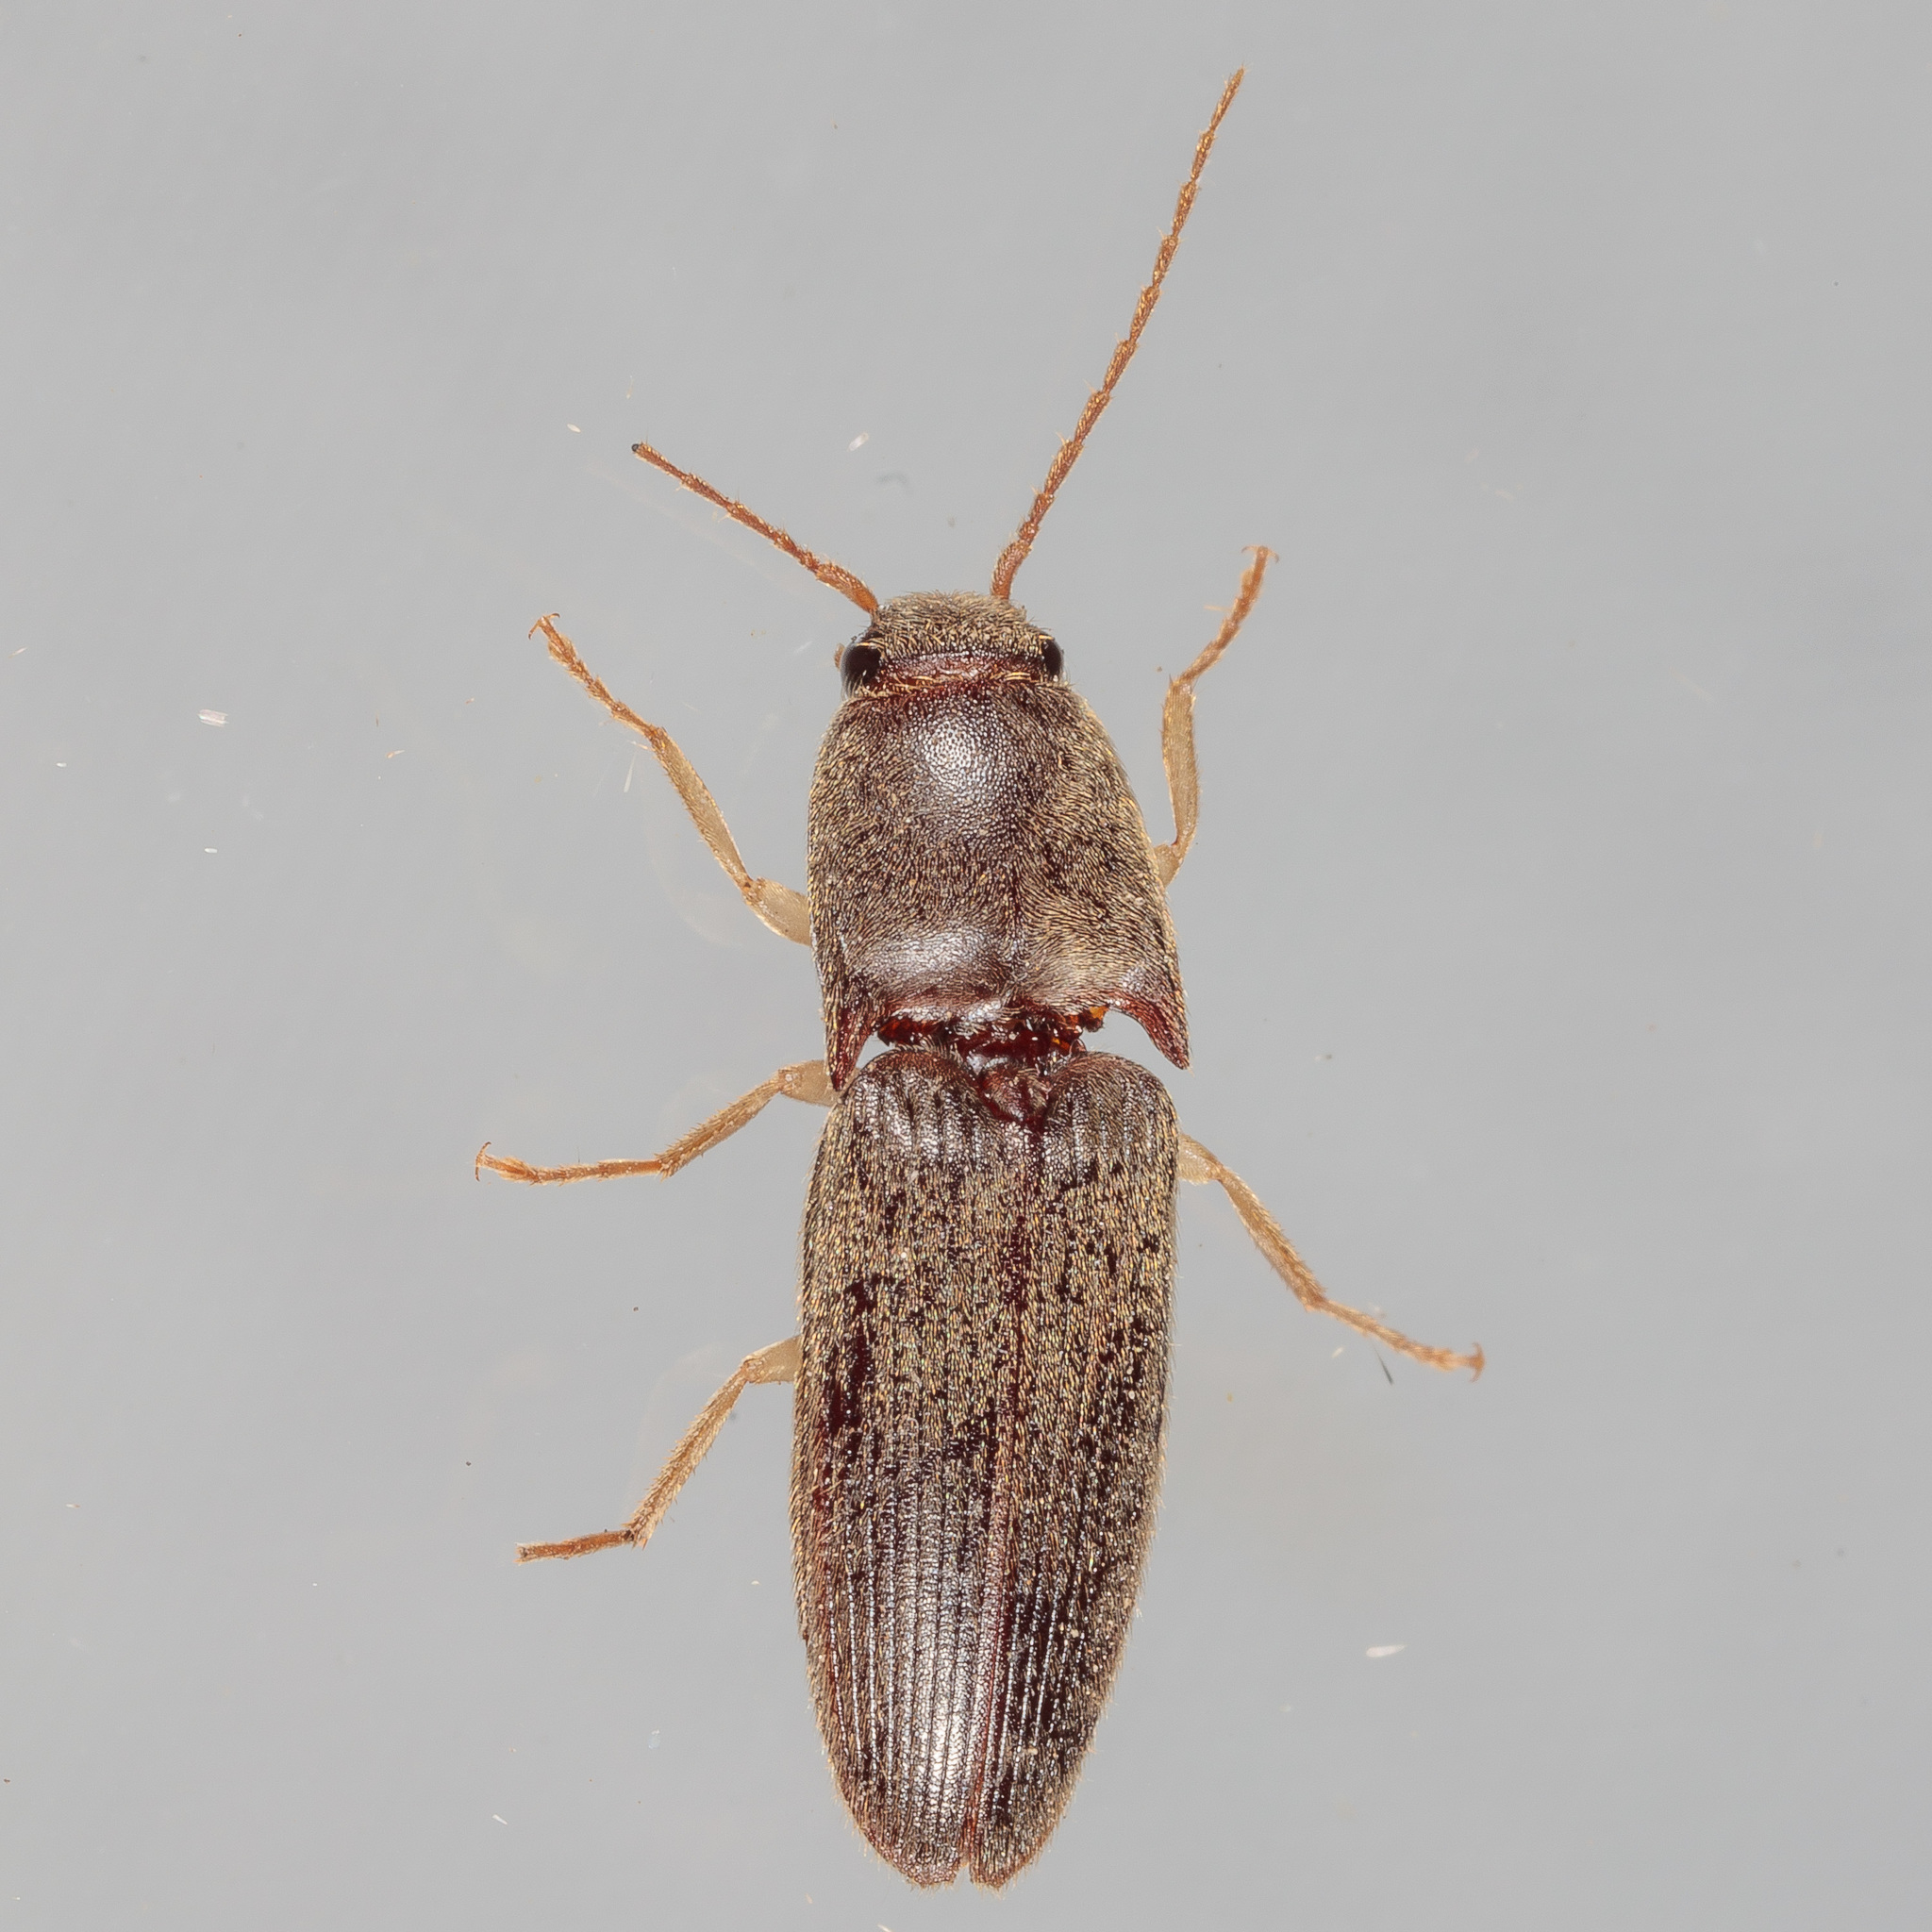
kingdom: Animalia
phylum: Arthropoda
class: Insecta
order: Coleoptera
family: Elateridae
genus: Conoderus
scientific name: Conoderus exsul
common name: Click beetle
